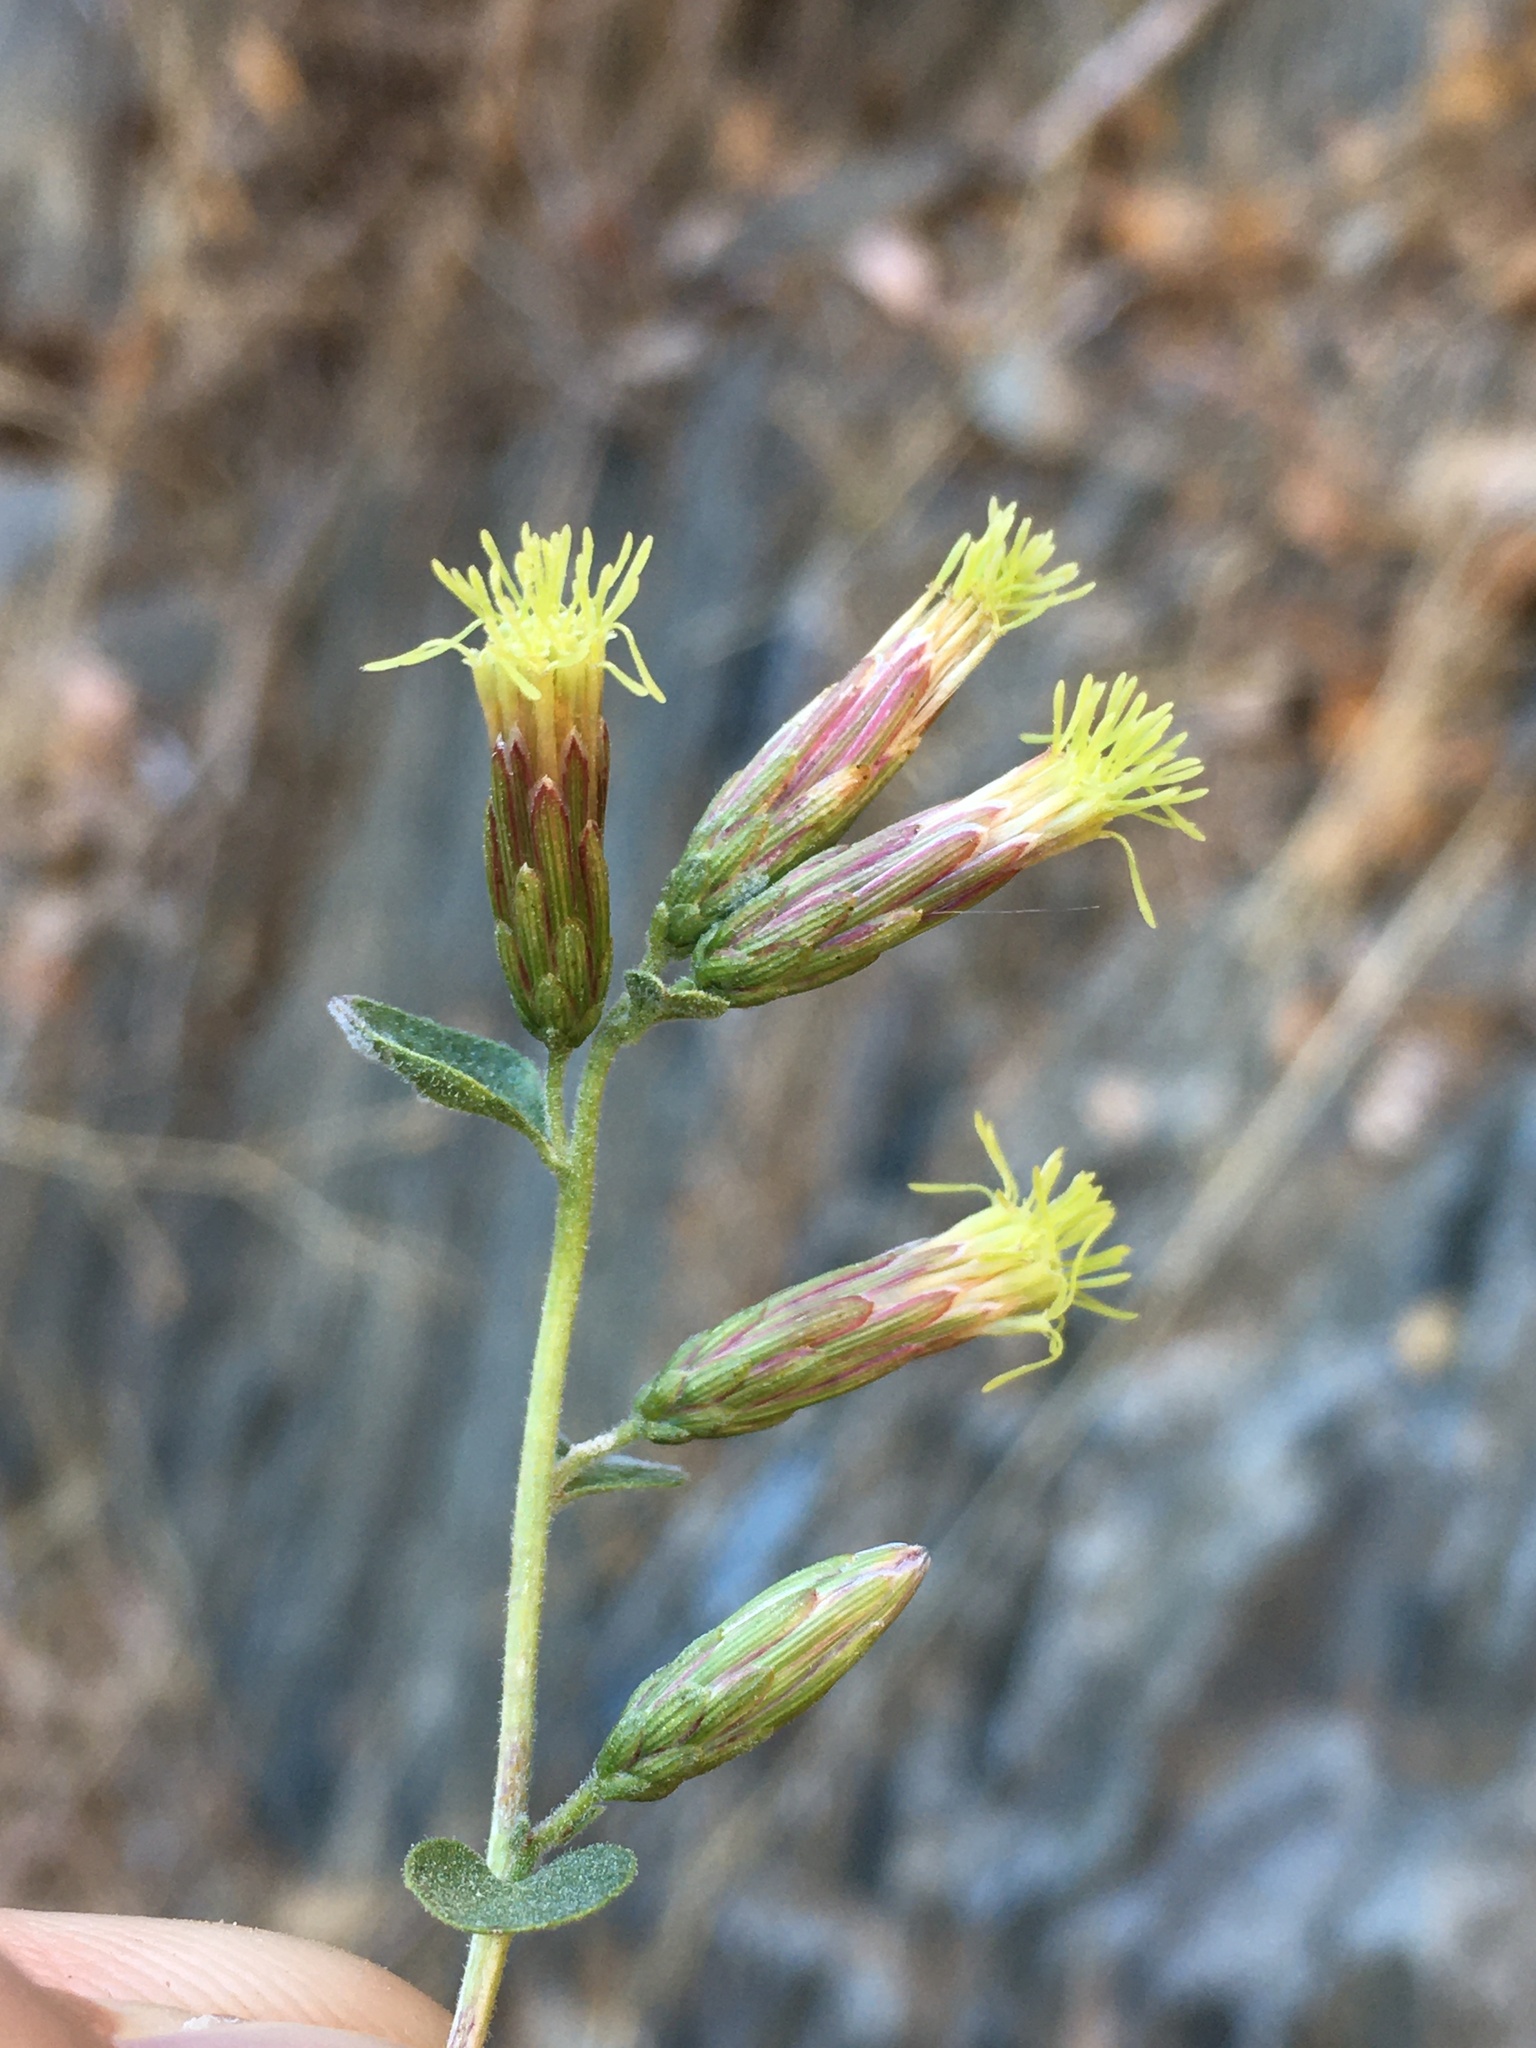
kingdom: Plantae
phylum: Tracheophyta
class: Magnoliopsida
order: Asterales
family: Asteraceae
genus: Brickellia
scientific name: Brickellia californica
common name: California brickellbush
